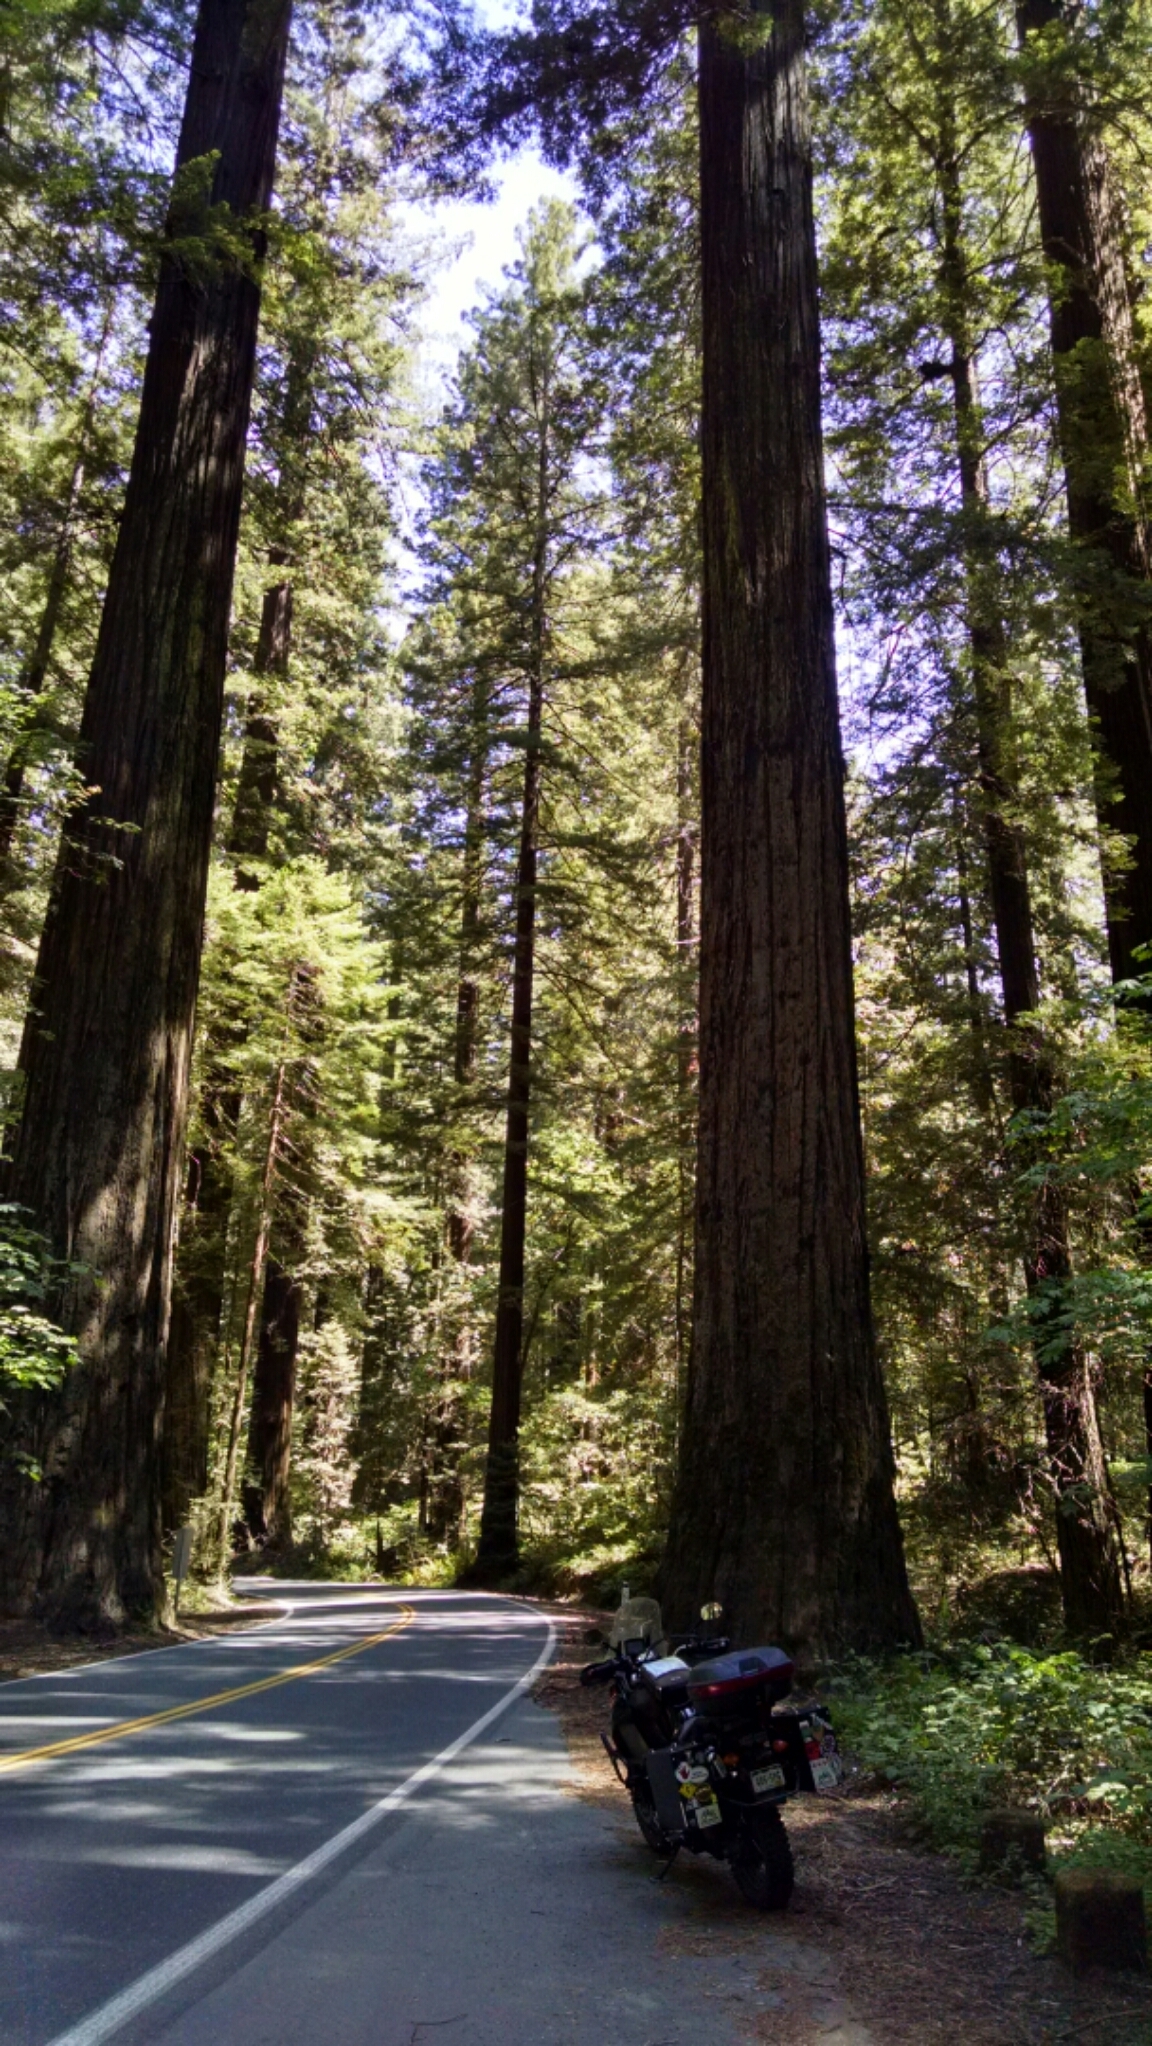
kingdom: Plantae
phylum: Tracheophyta
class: Pinopsida
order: Pinales
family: Cupressaceae
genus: Sequoia
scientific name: Sequoia sempervirens
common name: Coast redwood
